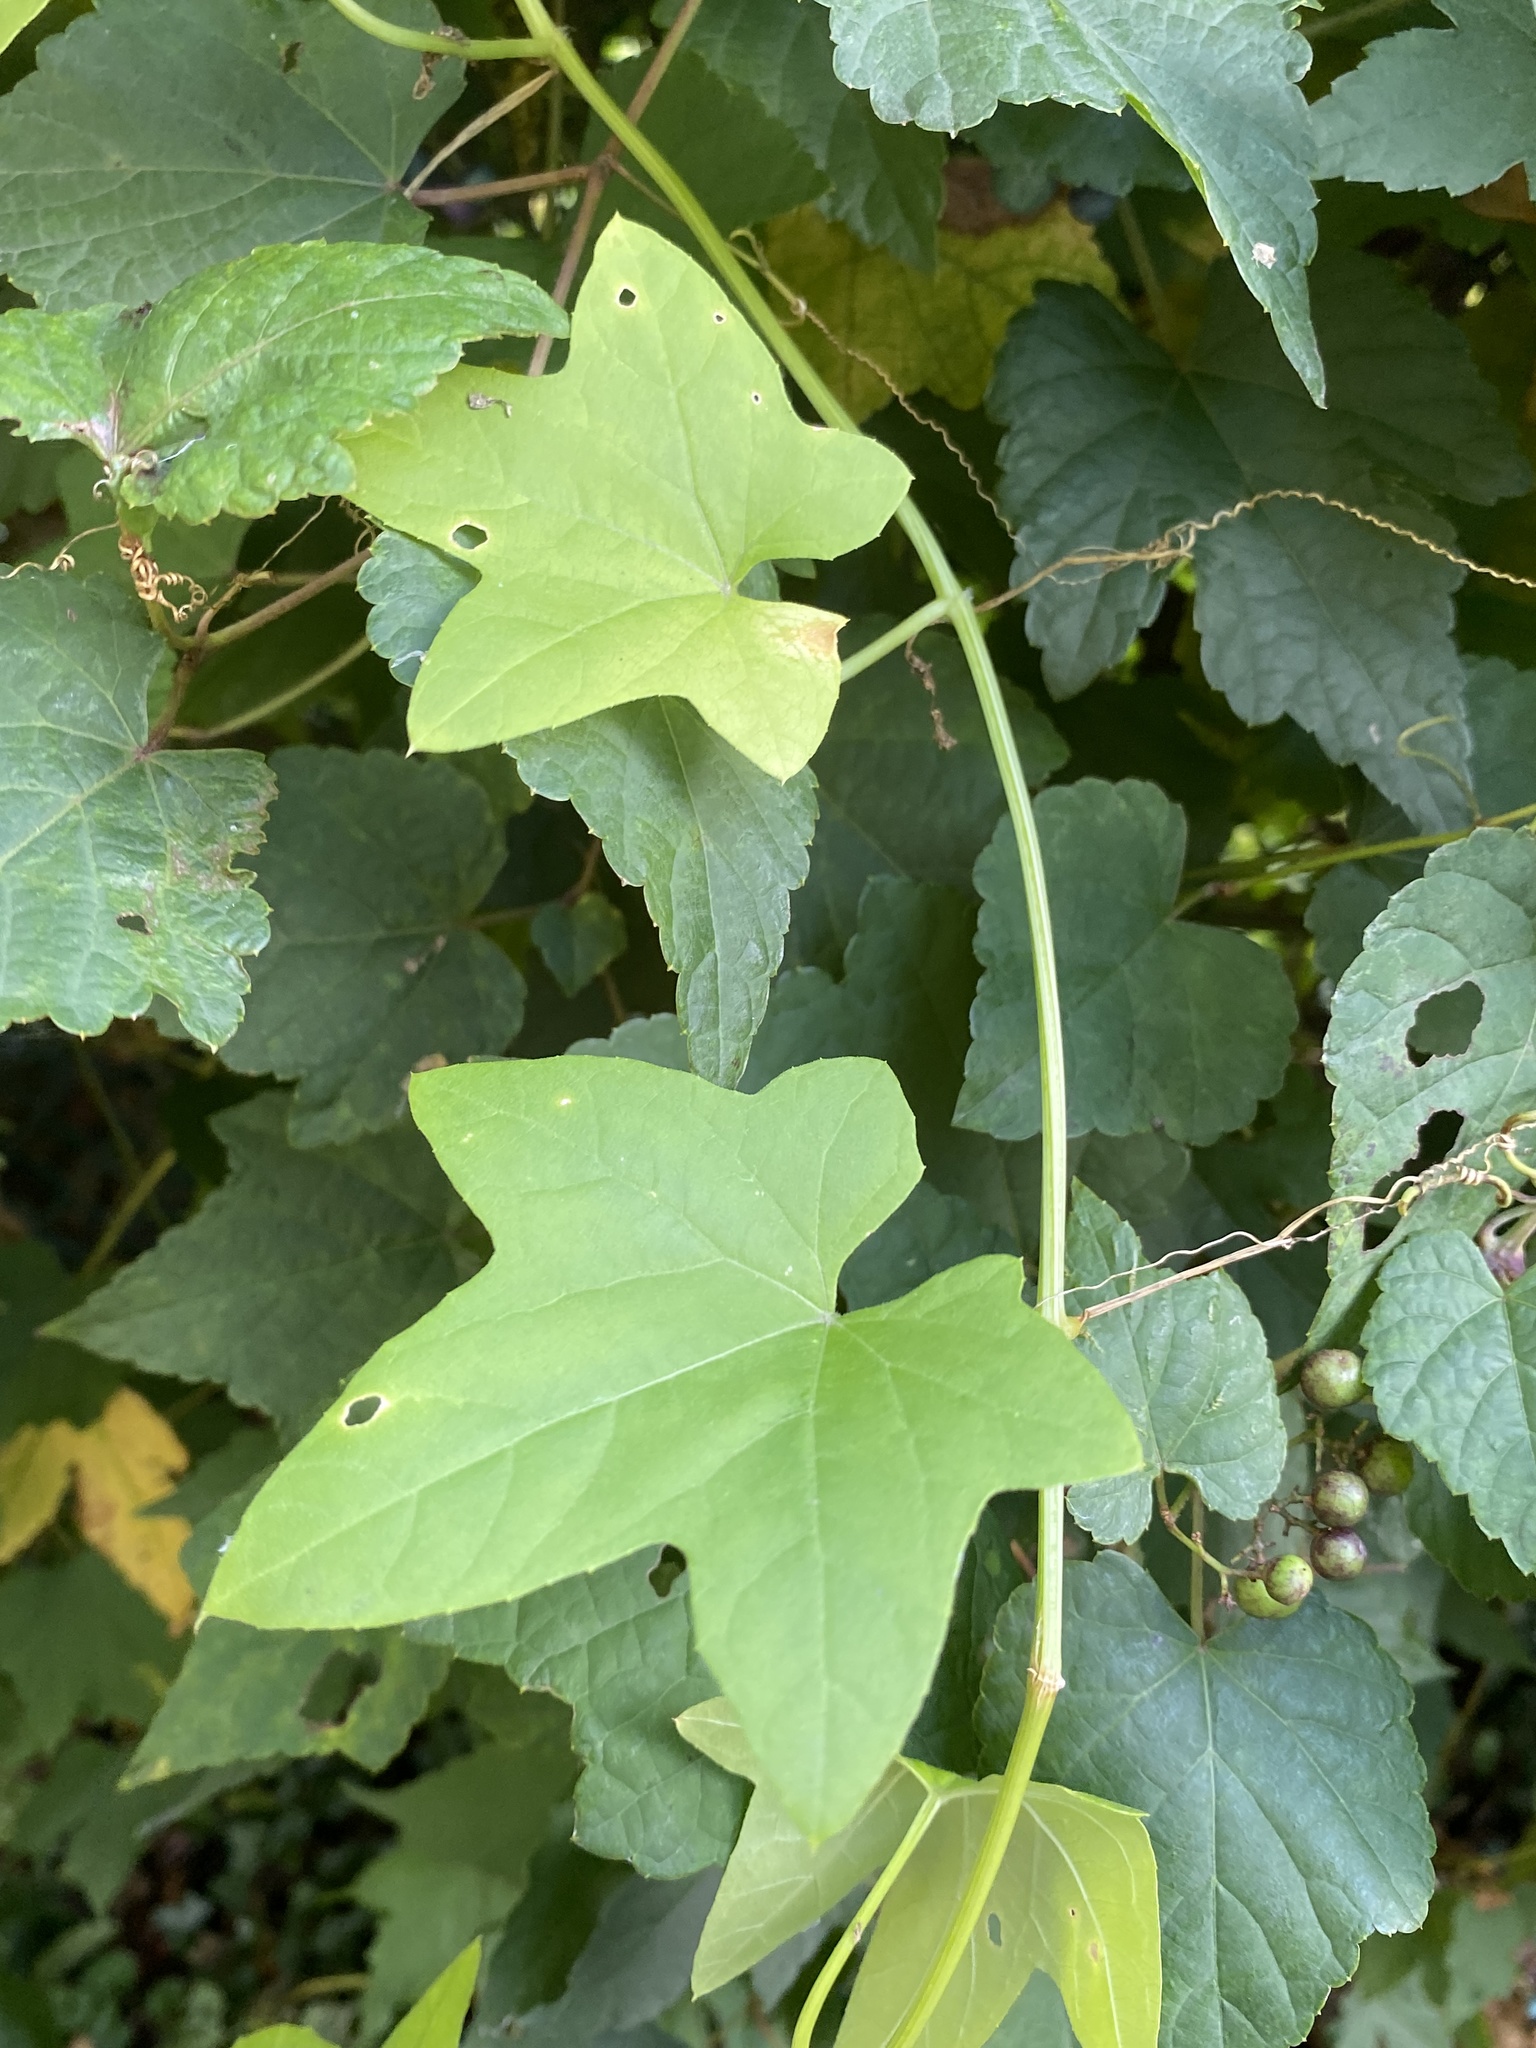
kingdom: Plantae
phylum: Tracheophyta
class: Magnoliopsida
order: Cucurbitales
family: Cucurbitaceae
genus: Echinocystis
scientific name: Echinocystis lobata
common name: Wild cucumber
